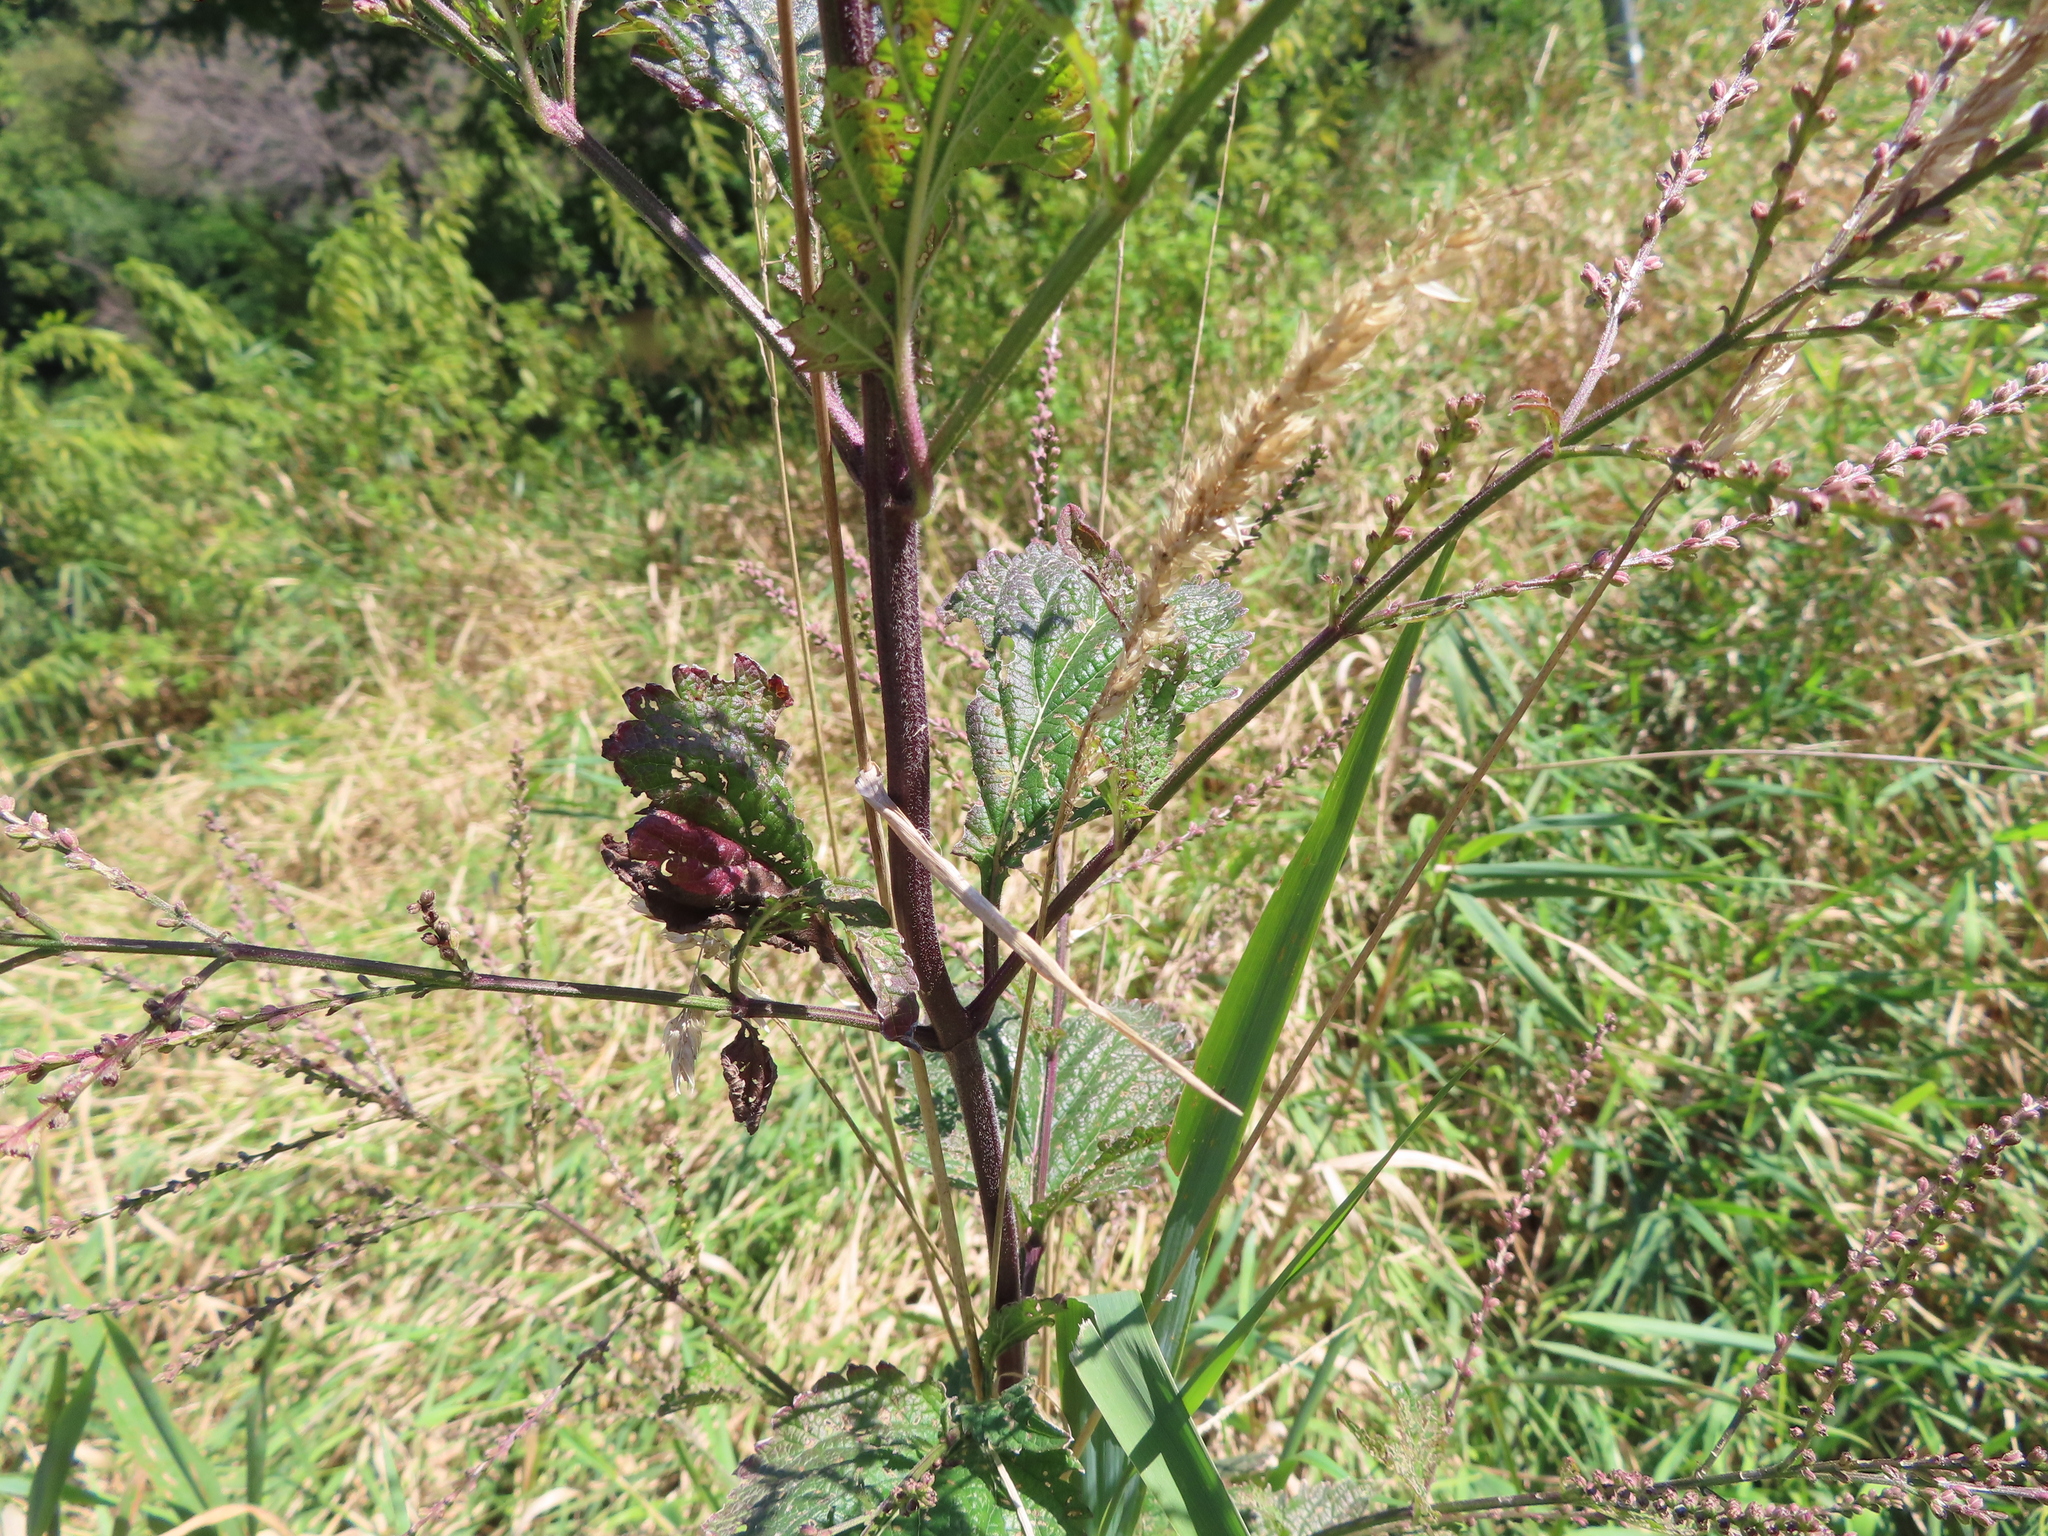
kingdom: Plantae
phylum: Tracheophyta
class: Magnoliopsida
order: Lamiales
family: Verbenaceae
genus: Verbena
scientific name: Verbena urticifolia
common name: Nettle-leaved vervain
